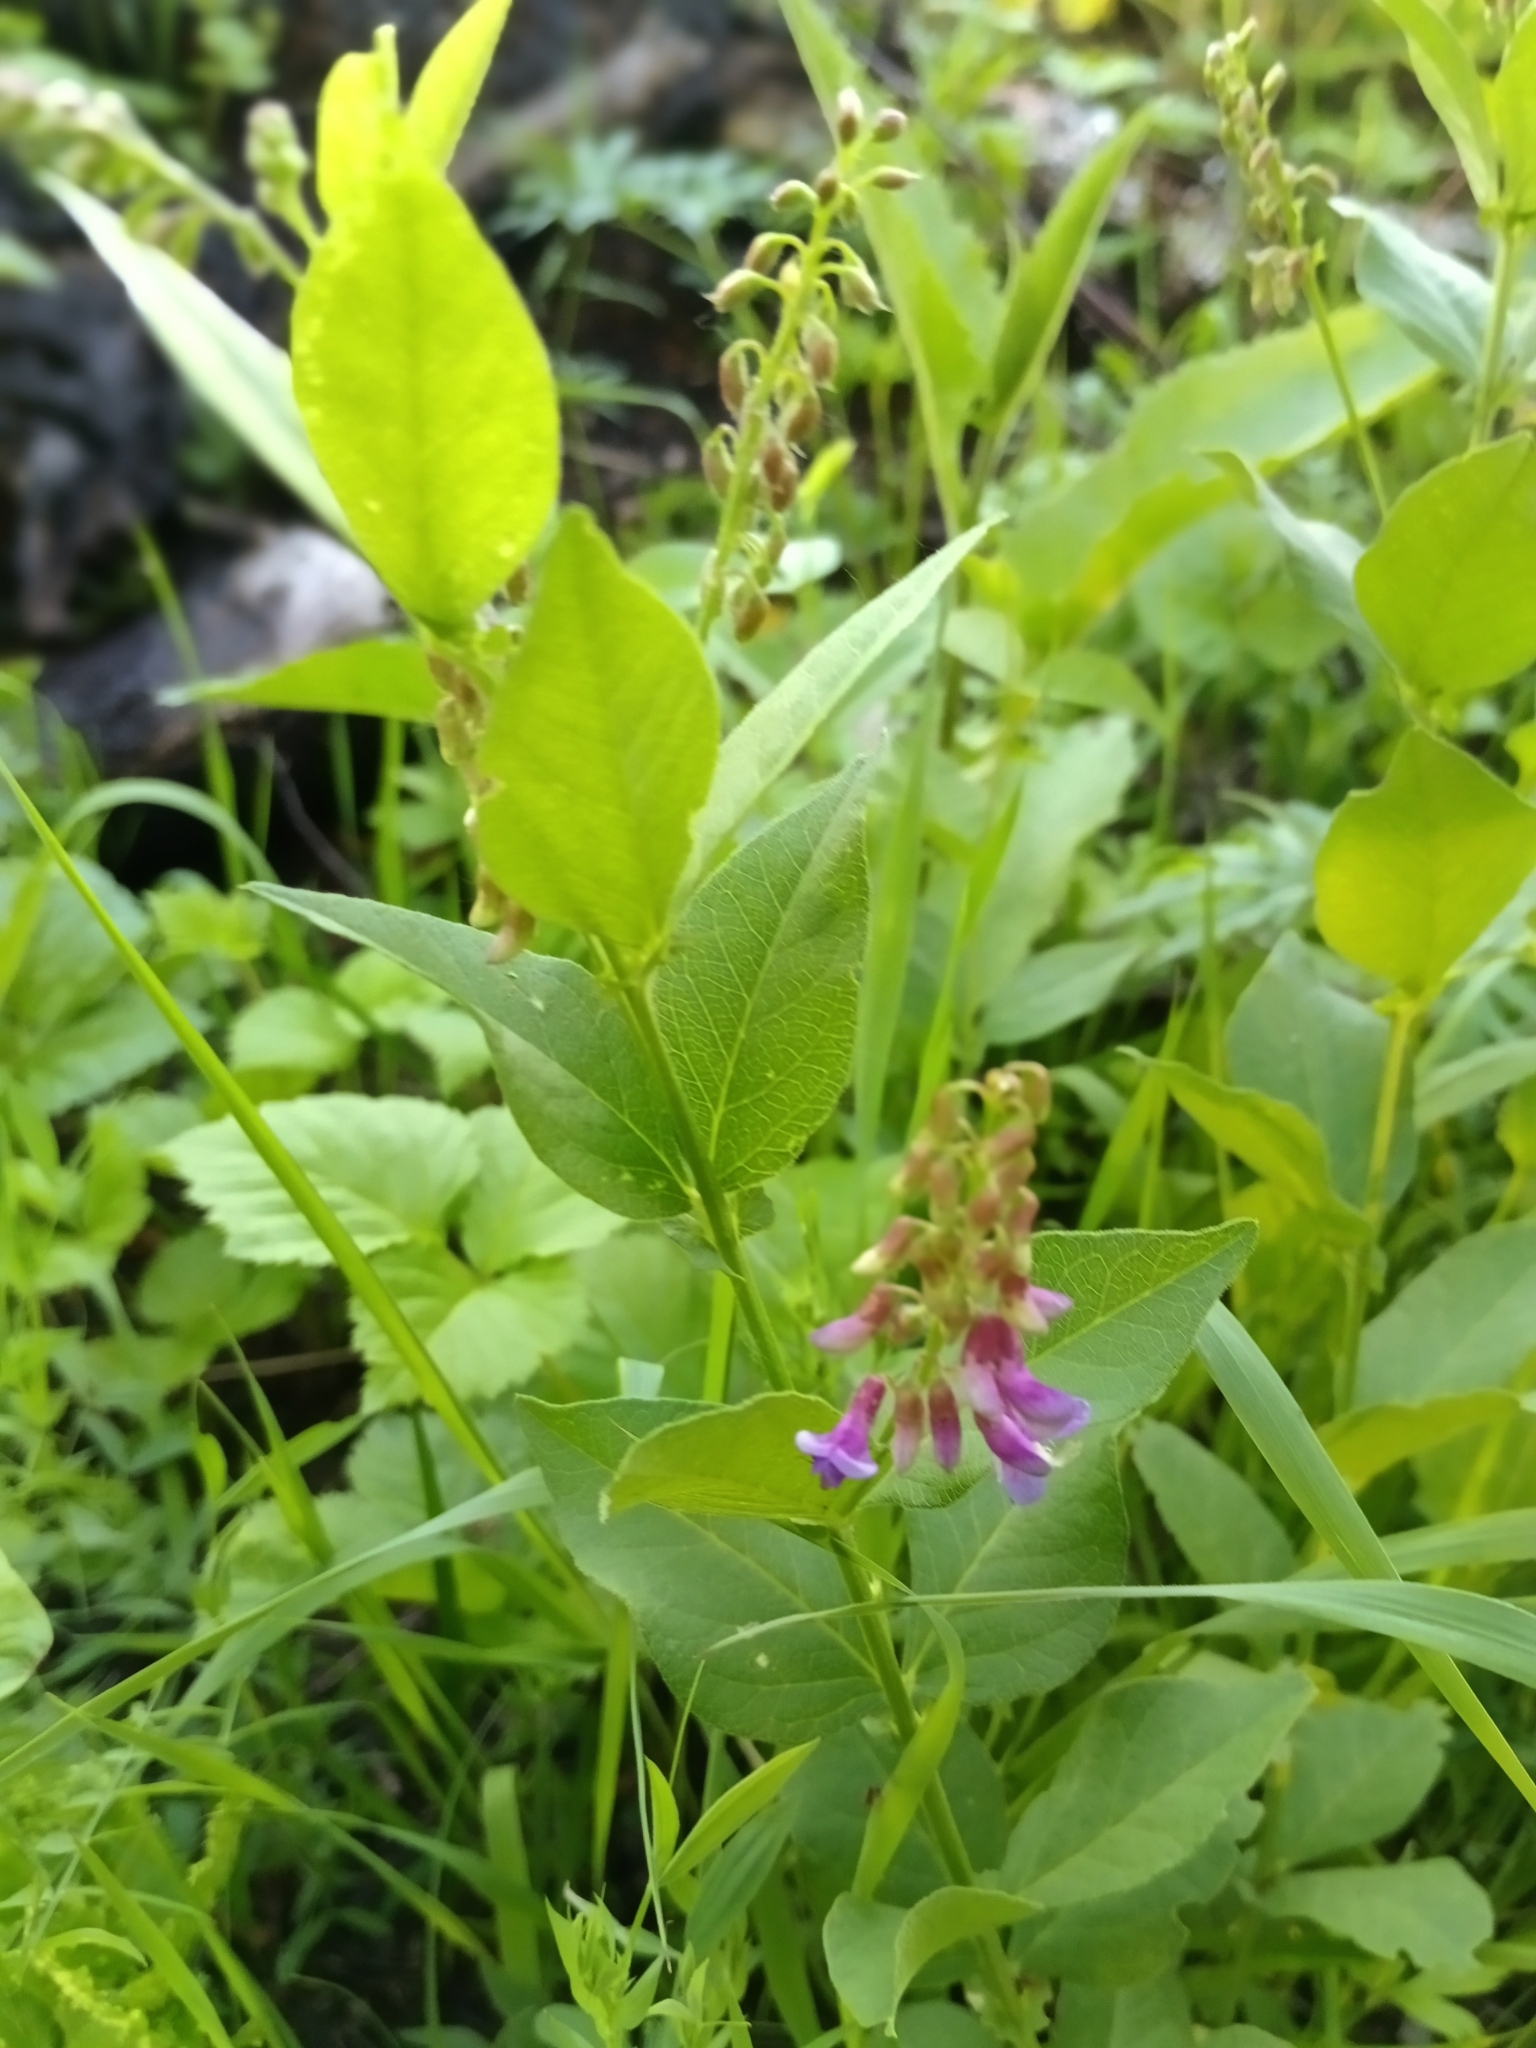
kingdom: Plantae
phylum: Tracheophyta
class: Magnoliopsida
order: Fabales
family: Fabaceae
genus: Vicia
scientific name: Vicia unijuga
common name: Two-leaf vetch
